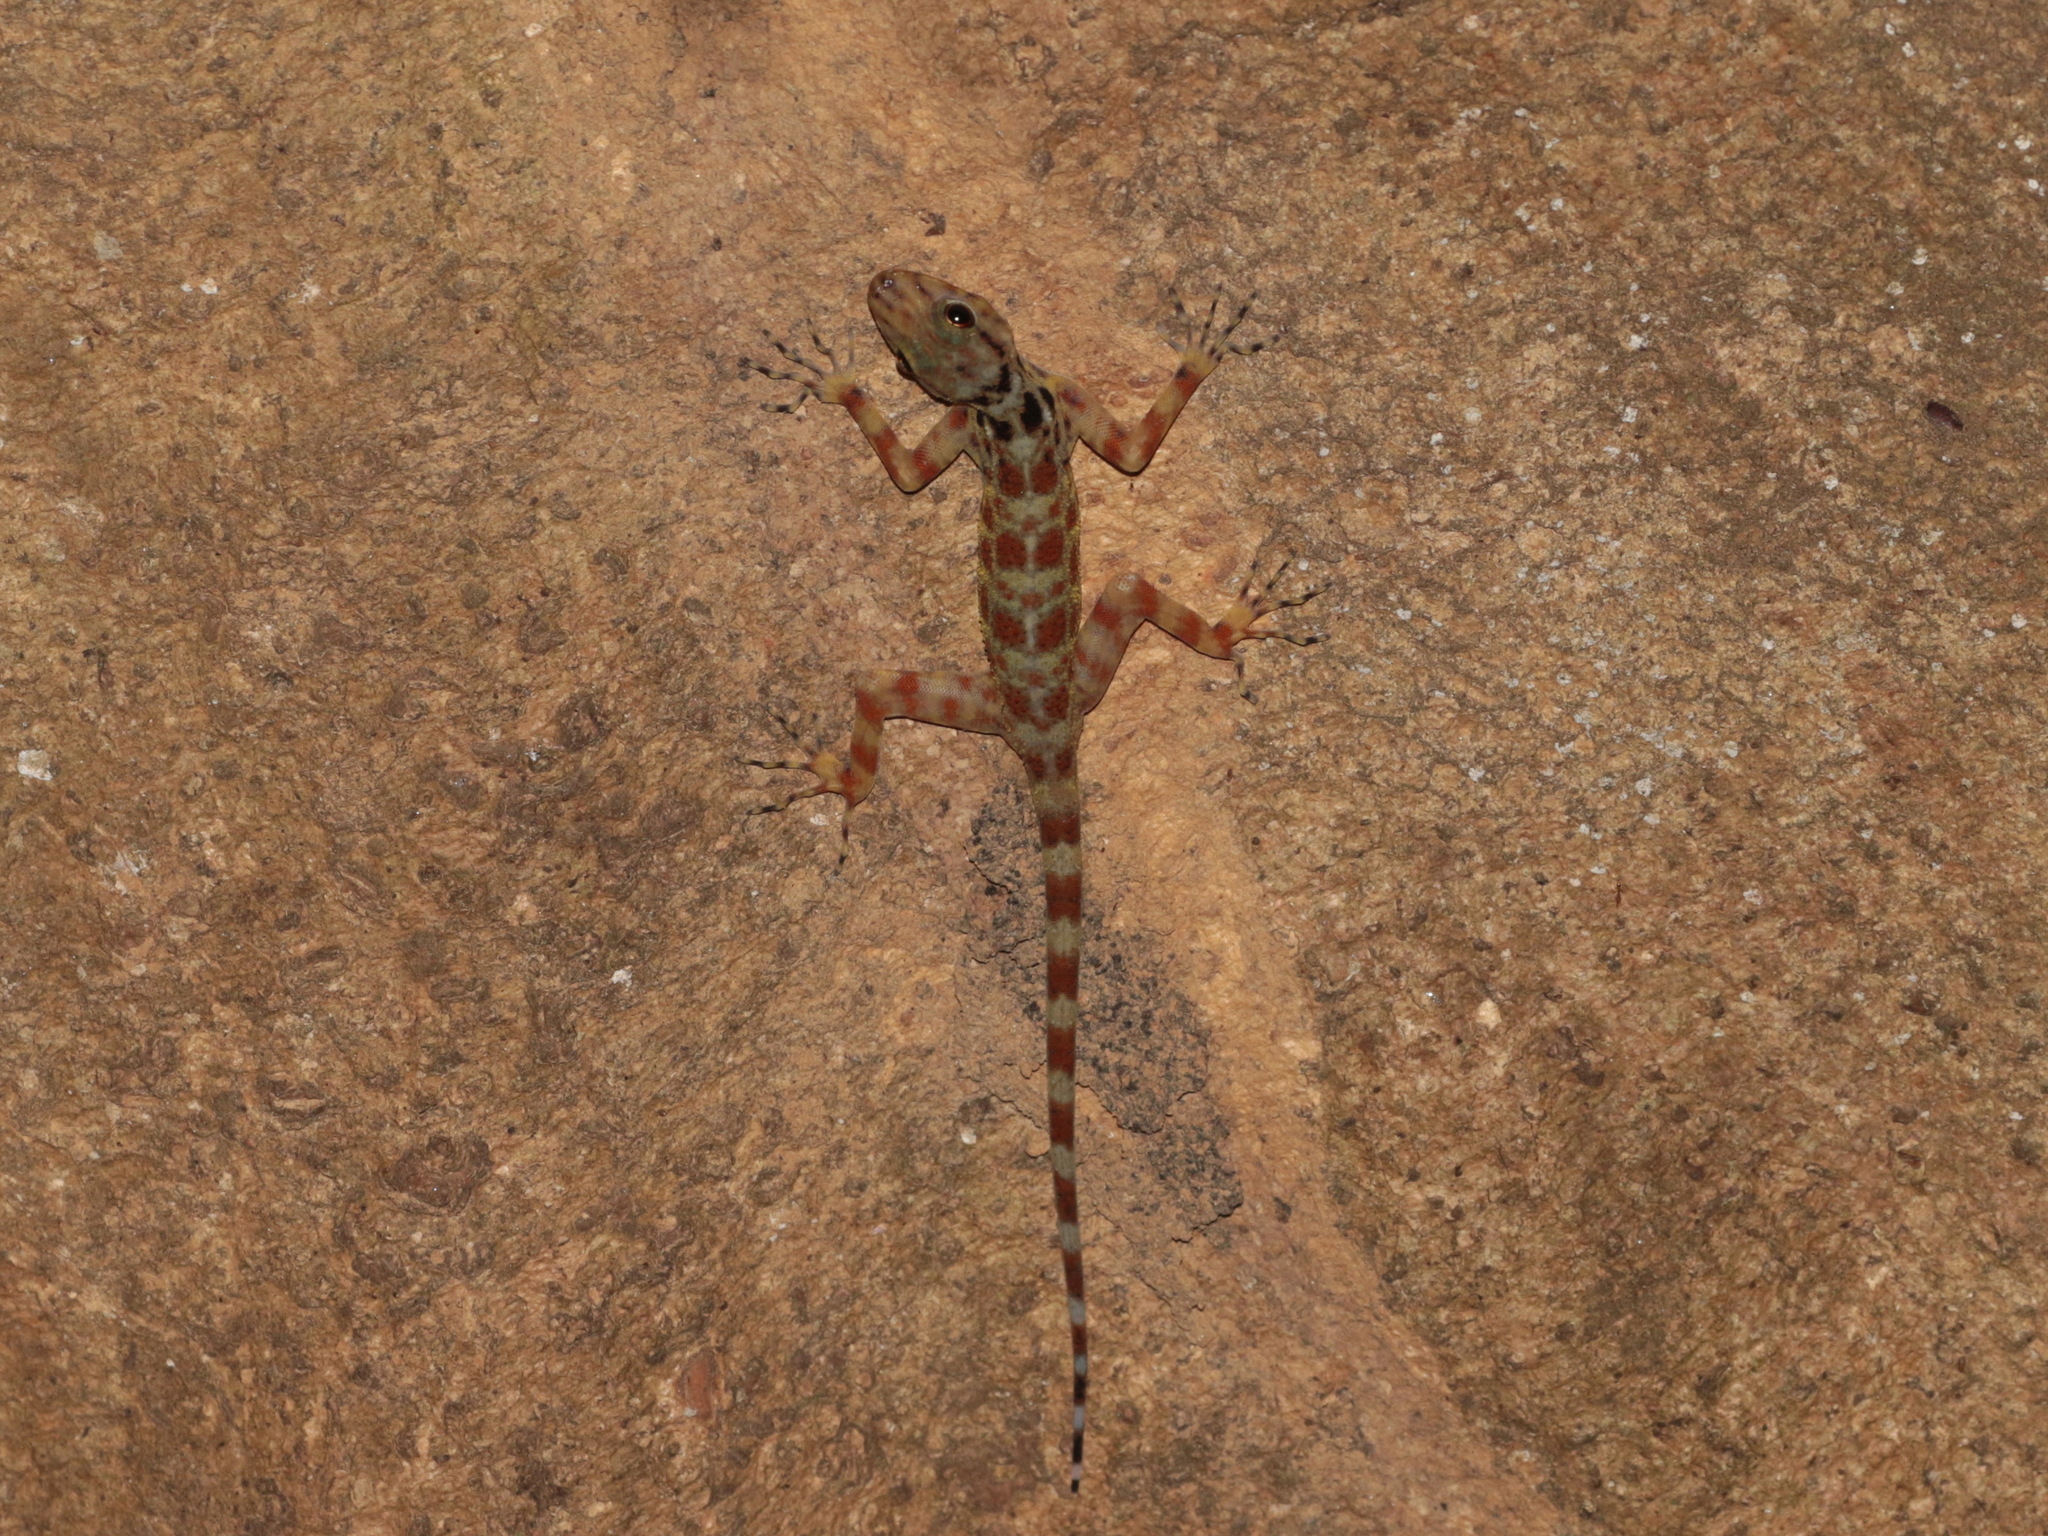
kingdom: Animalia
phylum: Chordata
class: Squamata
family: Gekkonidae
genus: Cnemaspis
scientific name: Cnemaspis kumpoli
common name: Kumpol’s rock gecko
